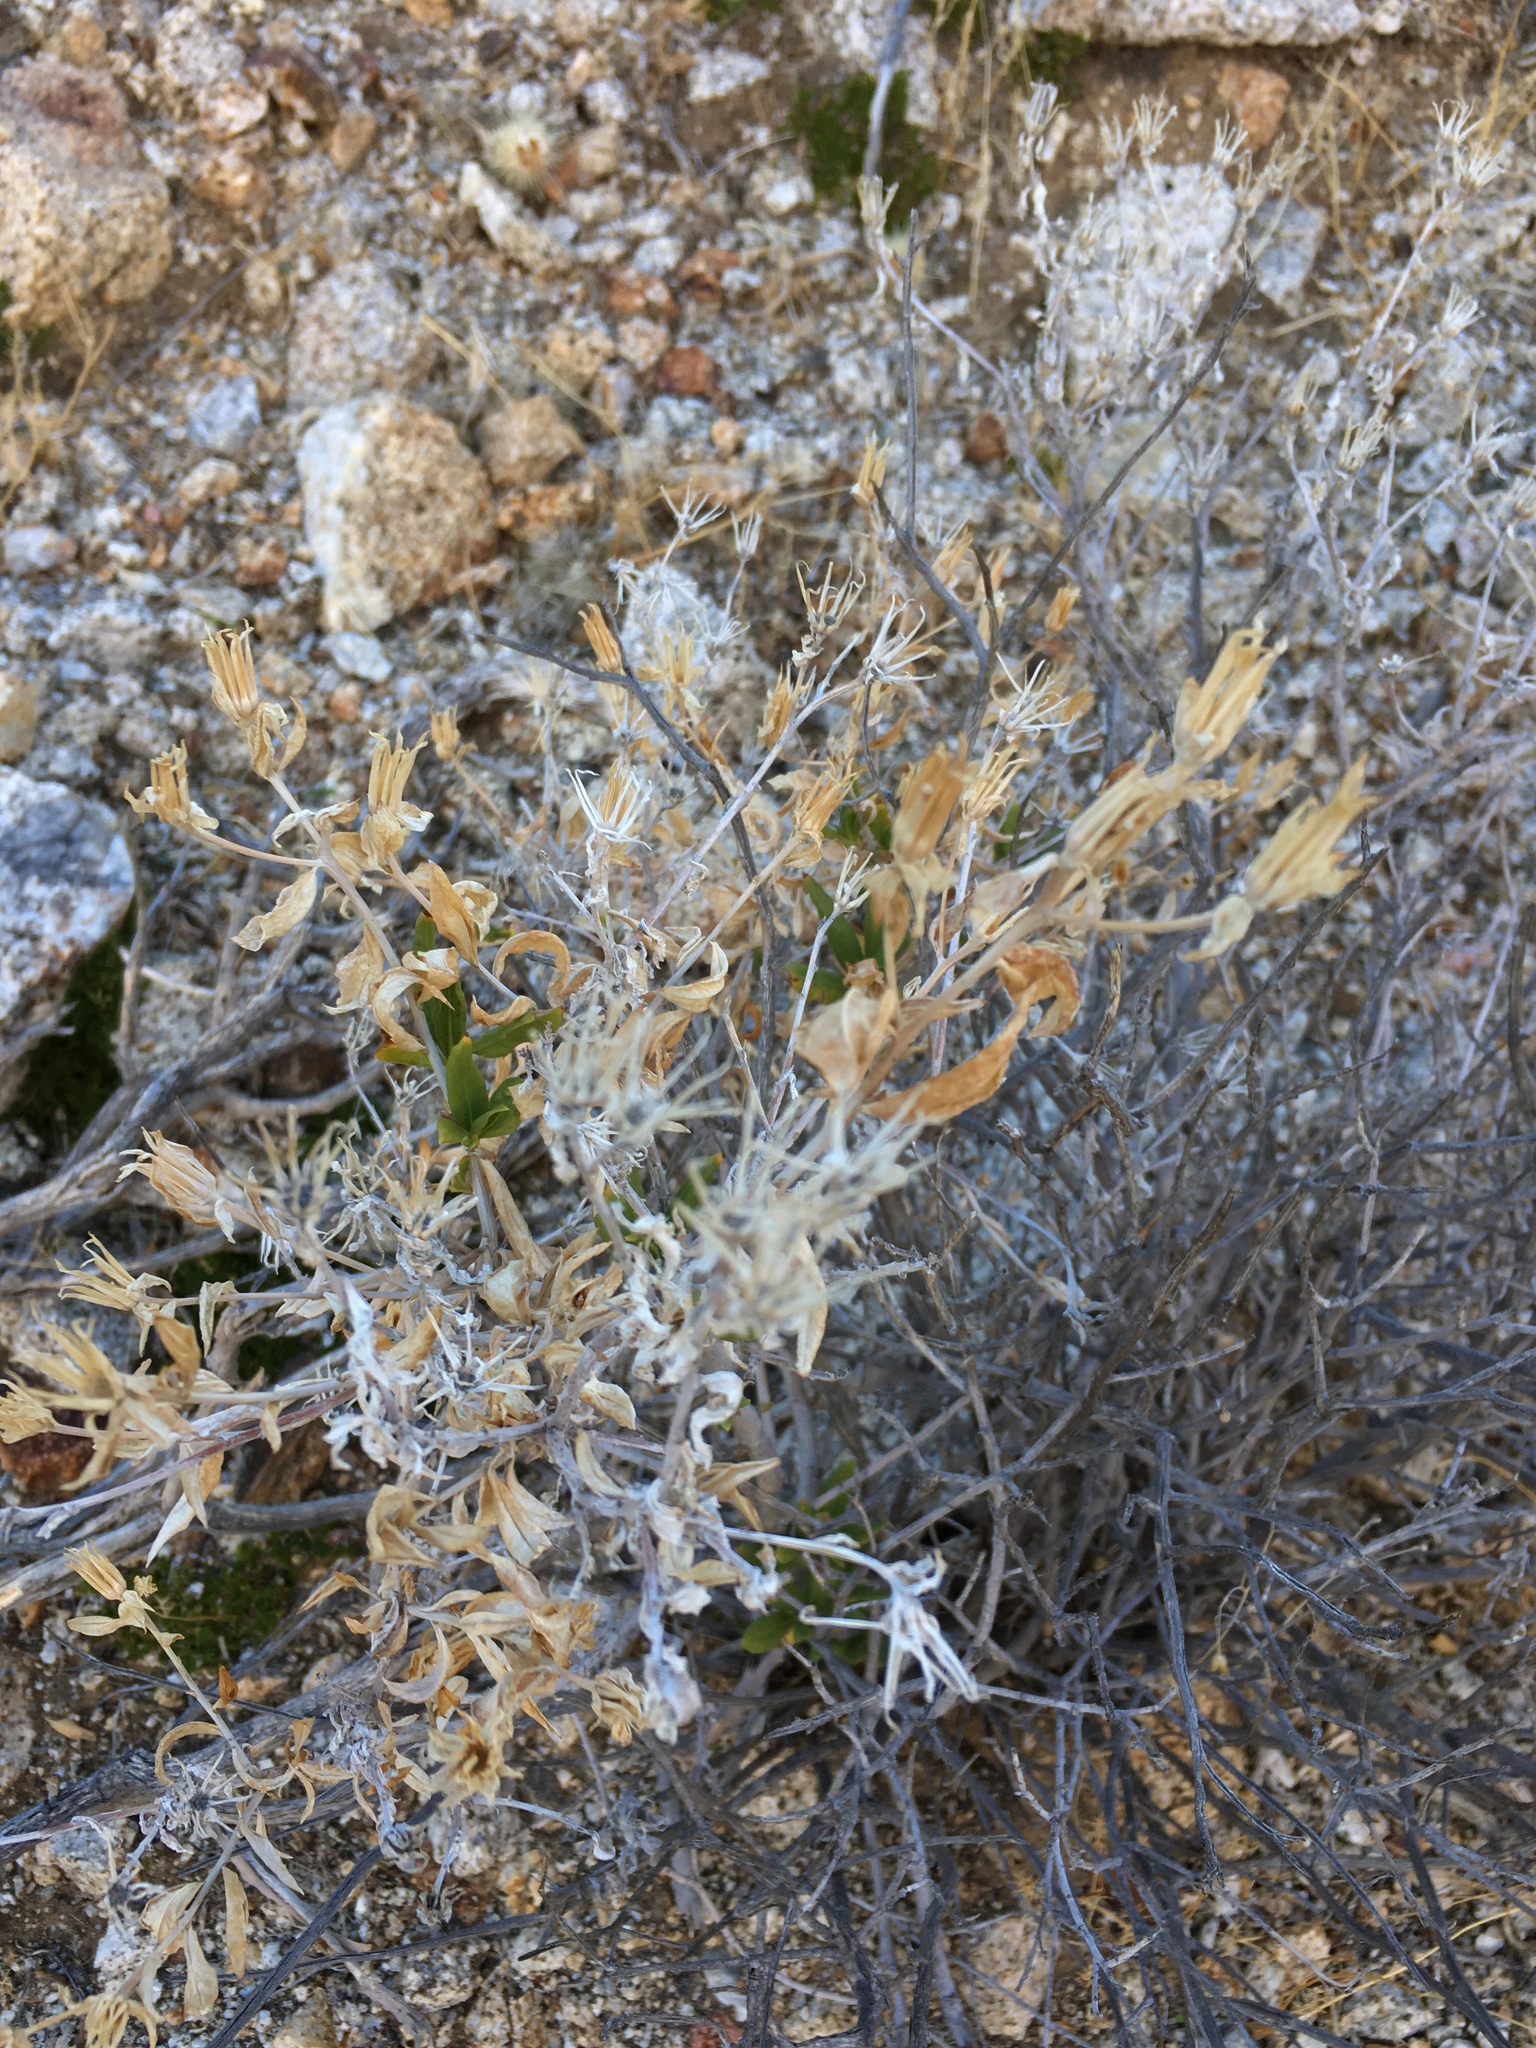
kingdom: Plantae
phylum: Tracheophyta
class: Magnoliopsida
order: Asterales
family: Asteraceae
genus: Trixis
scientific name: Trixis californica
